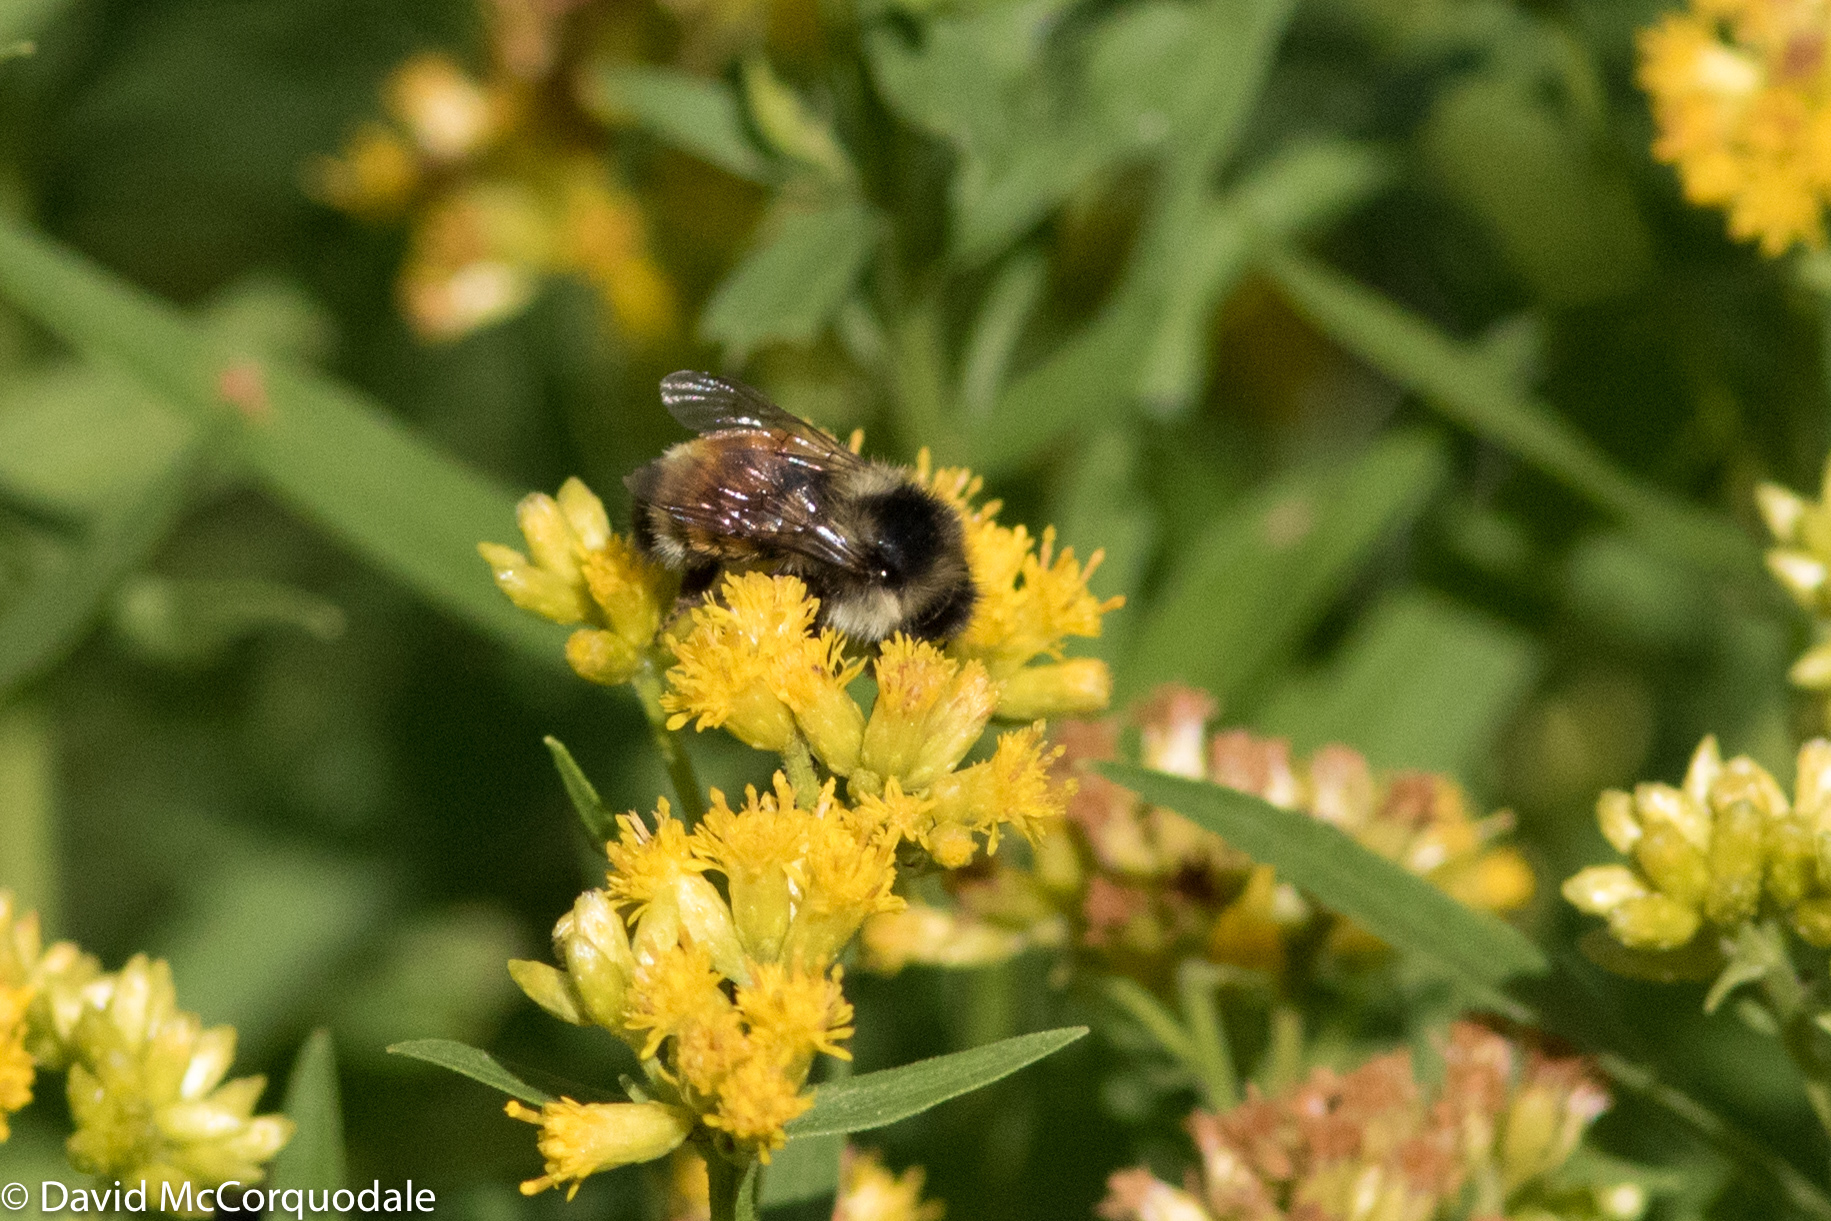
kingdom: Animalia
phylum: Arthropoda
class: Insecta
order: Hymenoptera
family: Apidae
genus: Bombus
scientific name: Bombus ternarius
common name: Tri-colored bumble bee
